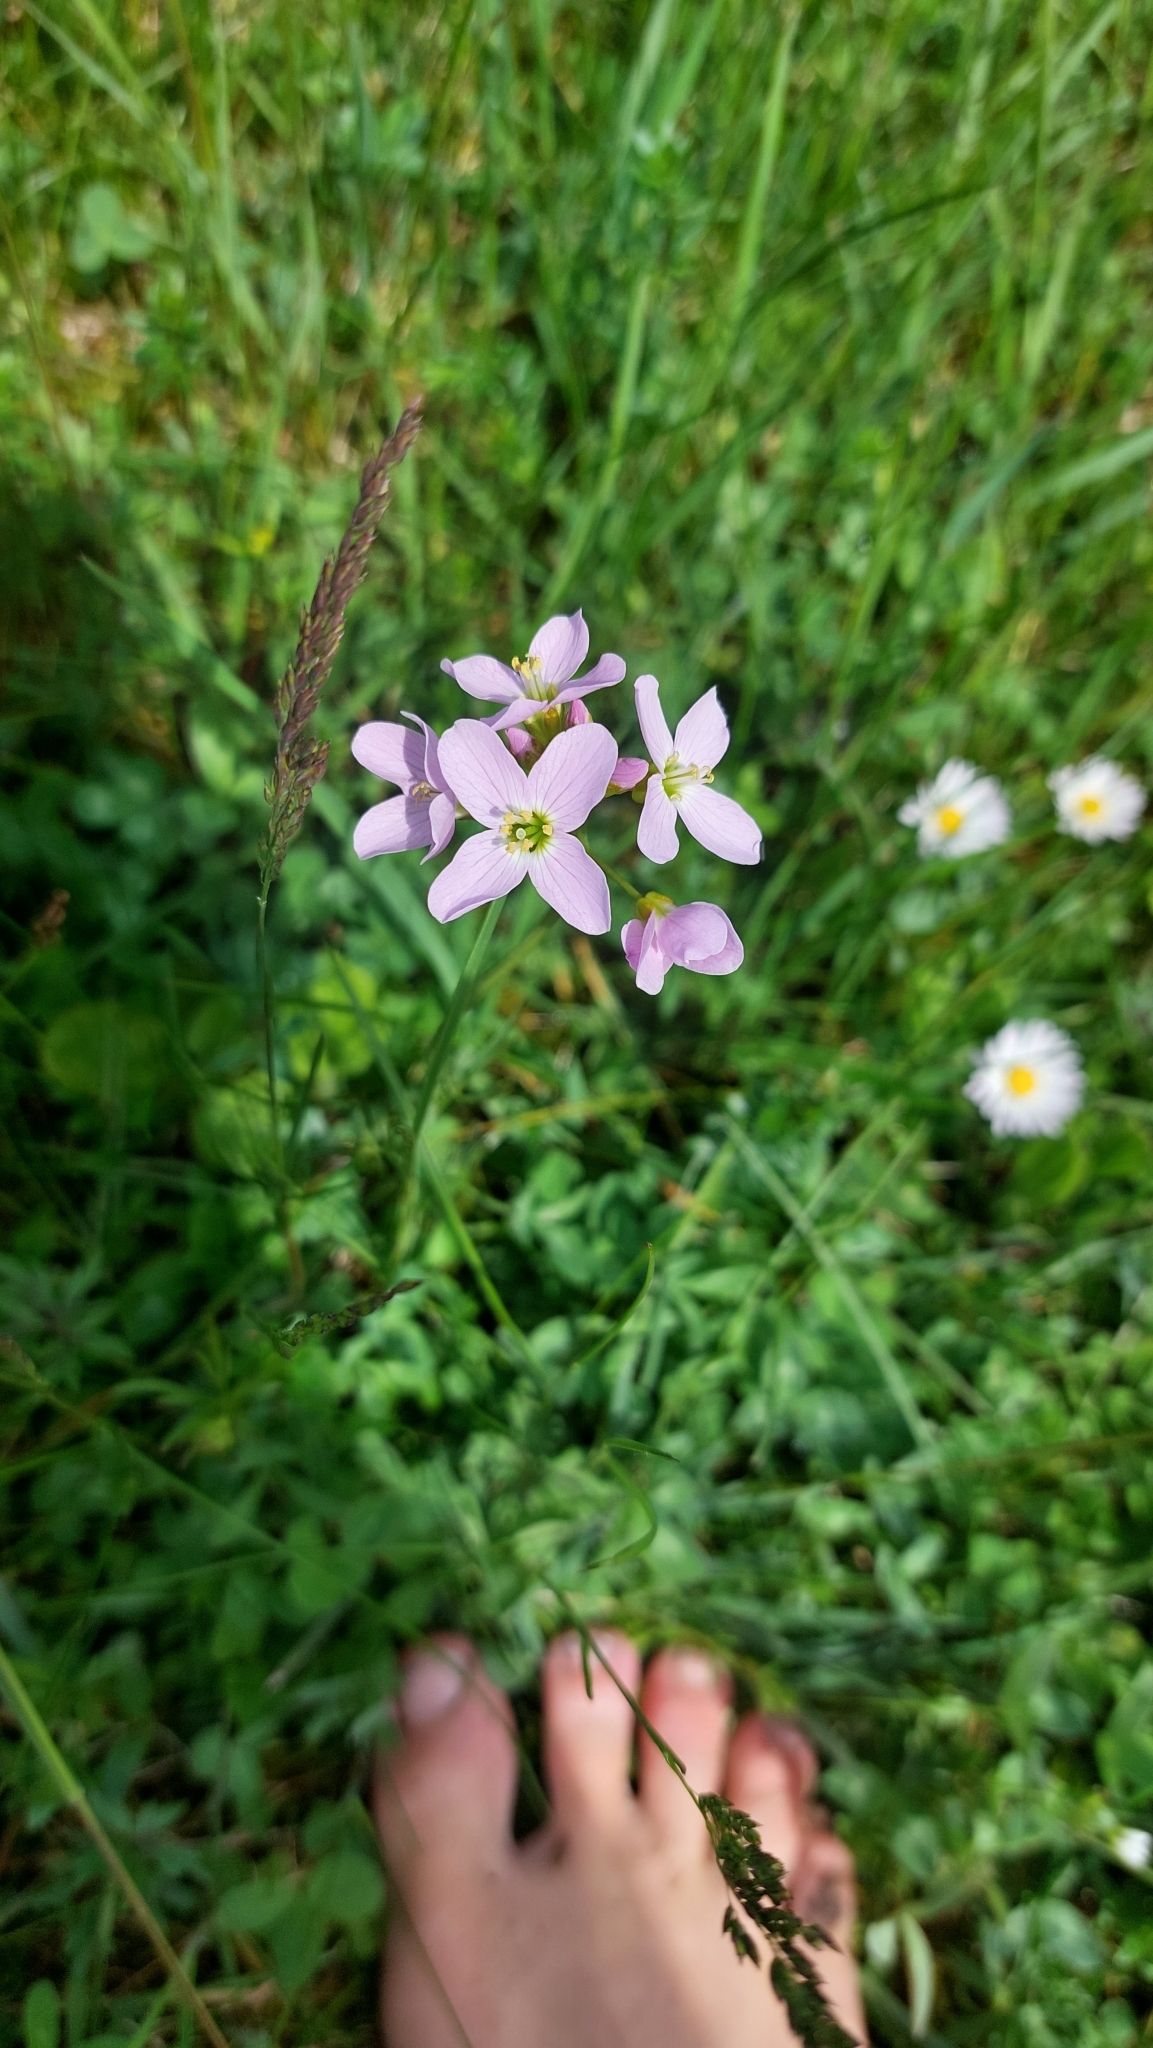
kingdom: Plantae
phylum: Tracheophyta
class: Magnoliopsida
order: Brassicales
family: Brassicaceae
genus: Cardamine
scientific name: Cardamine pratensis
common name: Cuckoo flower
